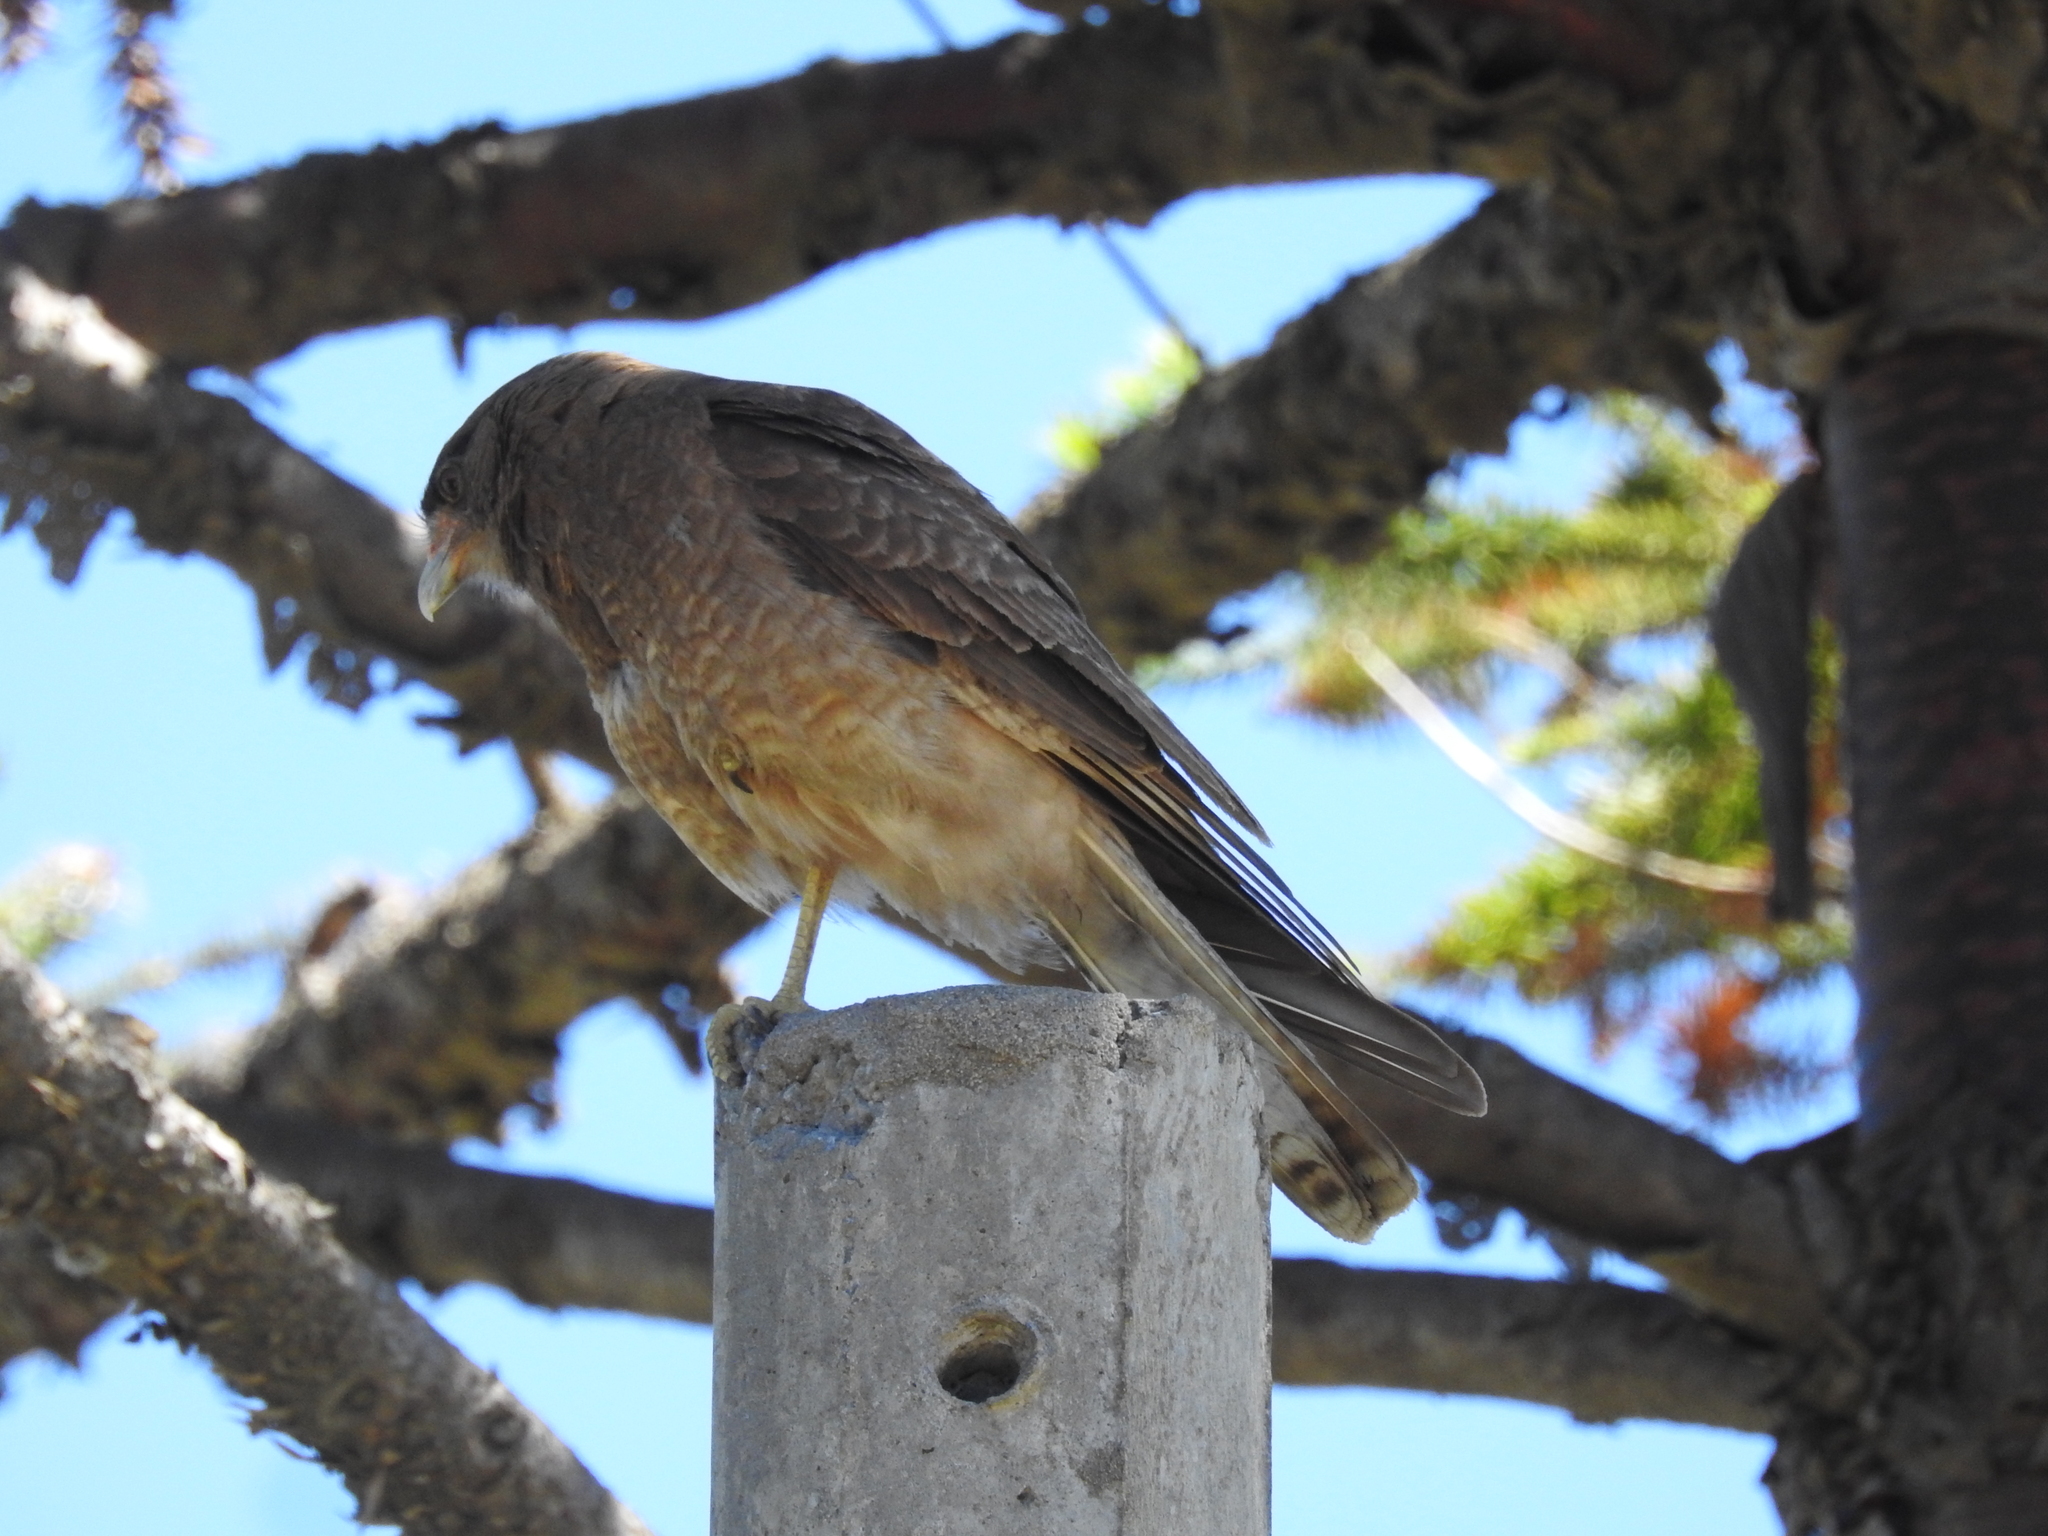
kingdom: Animalia
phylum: Chordata
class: Aves
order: Falconiformes
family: Falconidae
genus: Daptrius
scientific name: Daptrius
